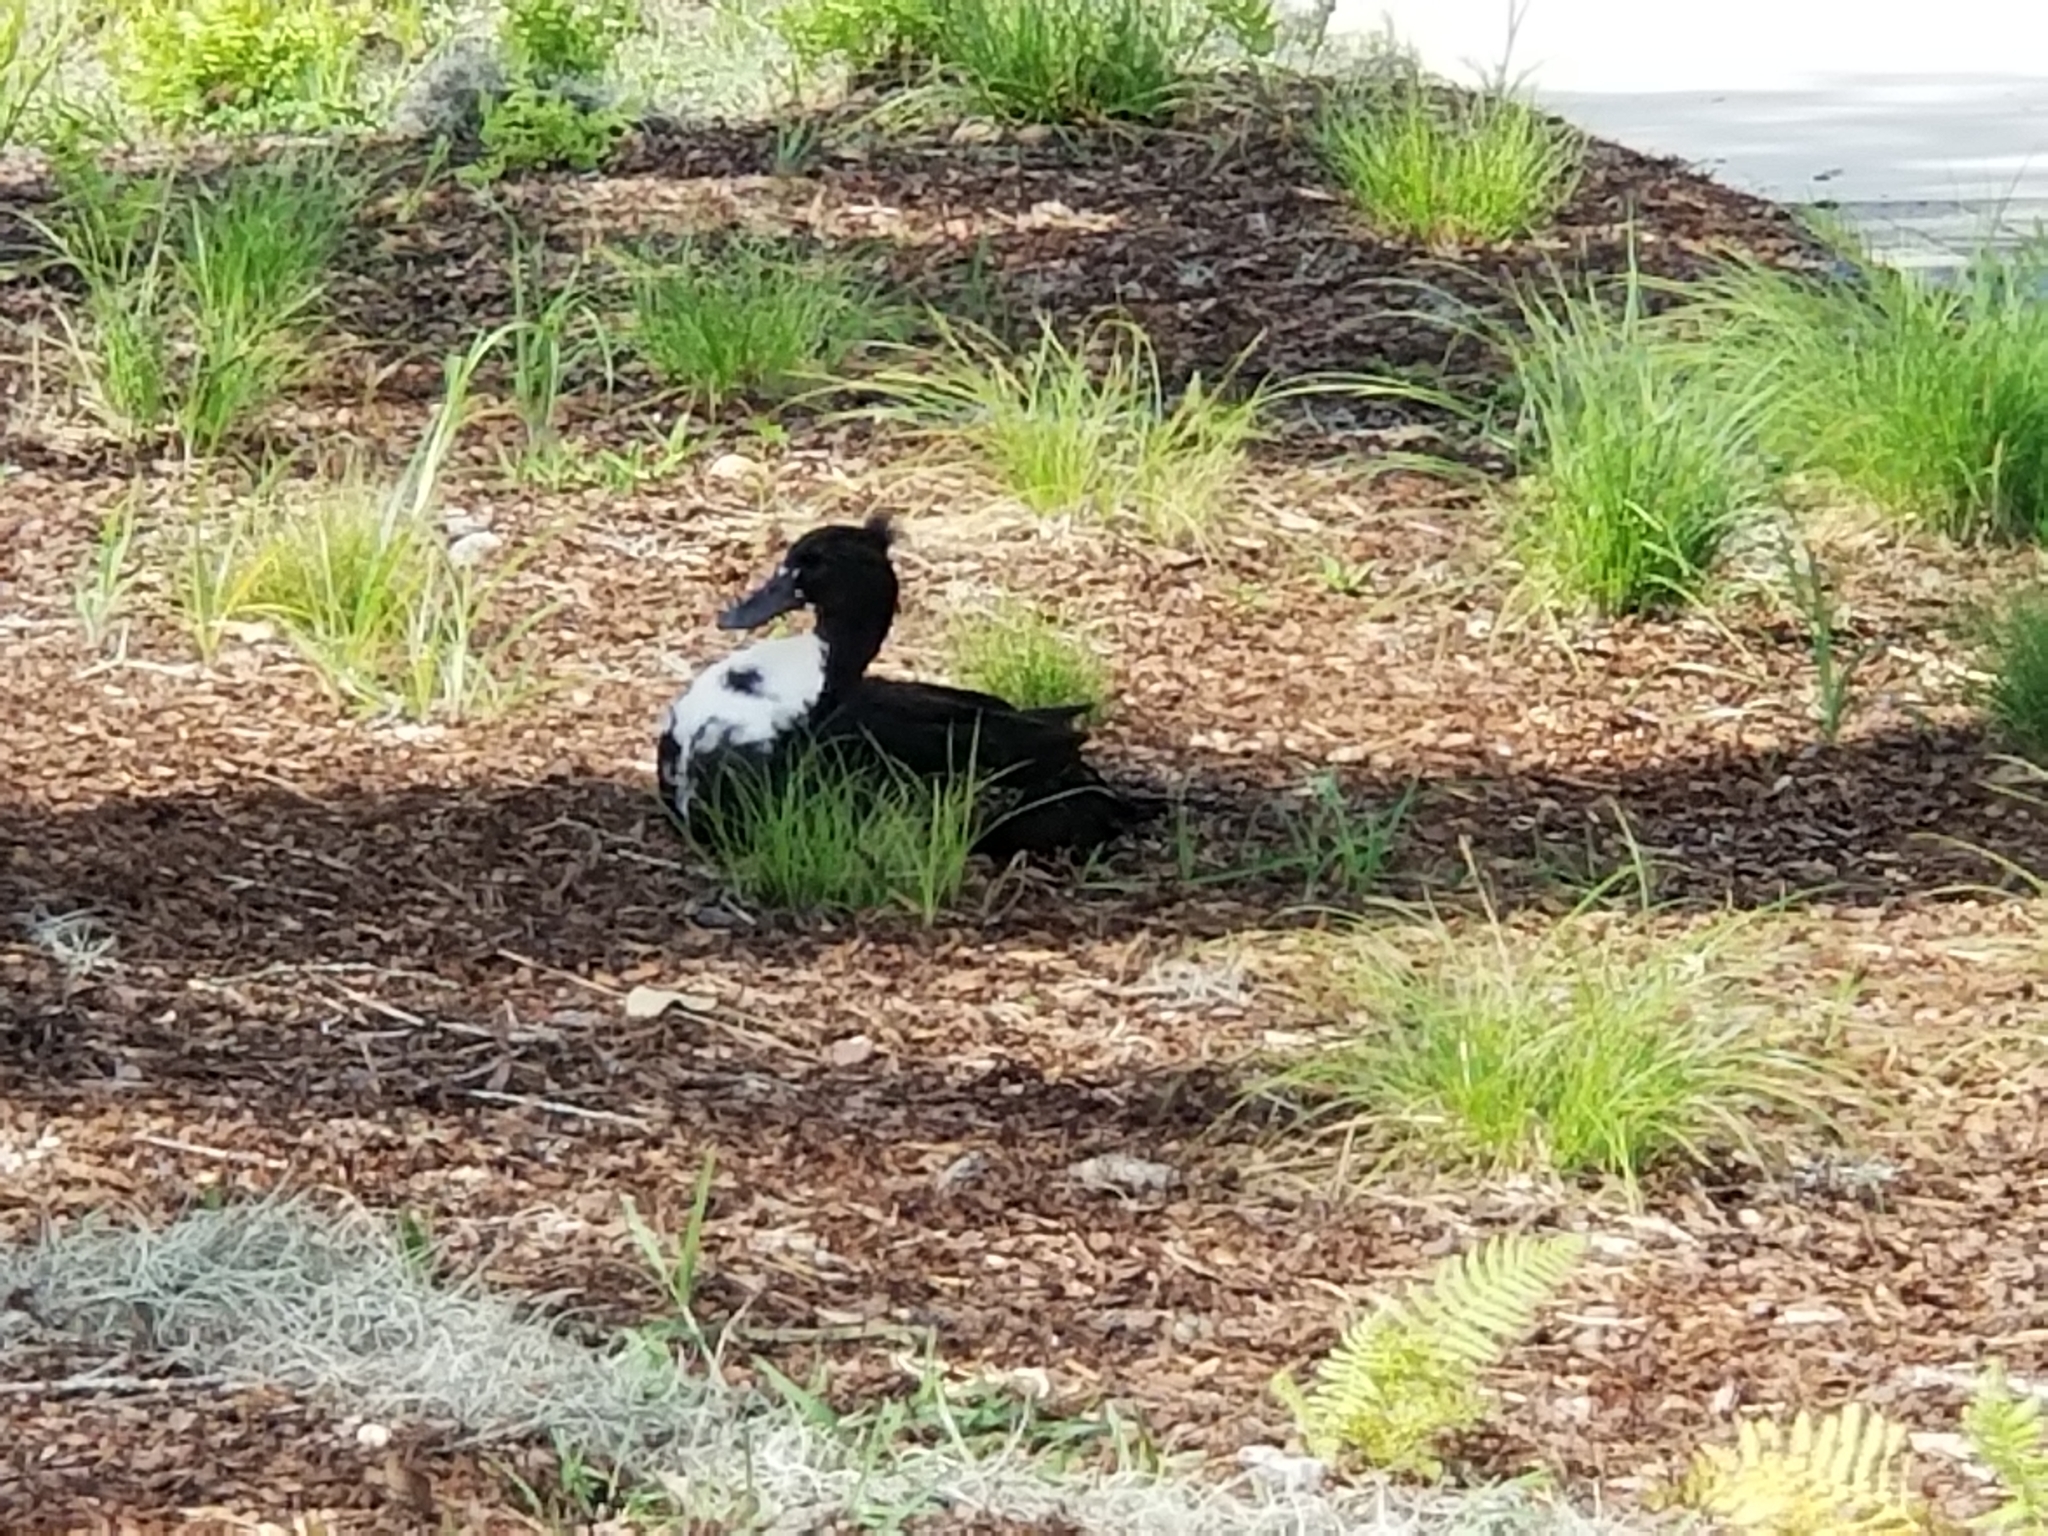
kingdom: Animalia
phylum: Chordata
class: Aves
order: Anseriformes
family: Anatidae
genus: Anas
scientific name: Anas platyrhynchos
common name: Mallard
